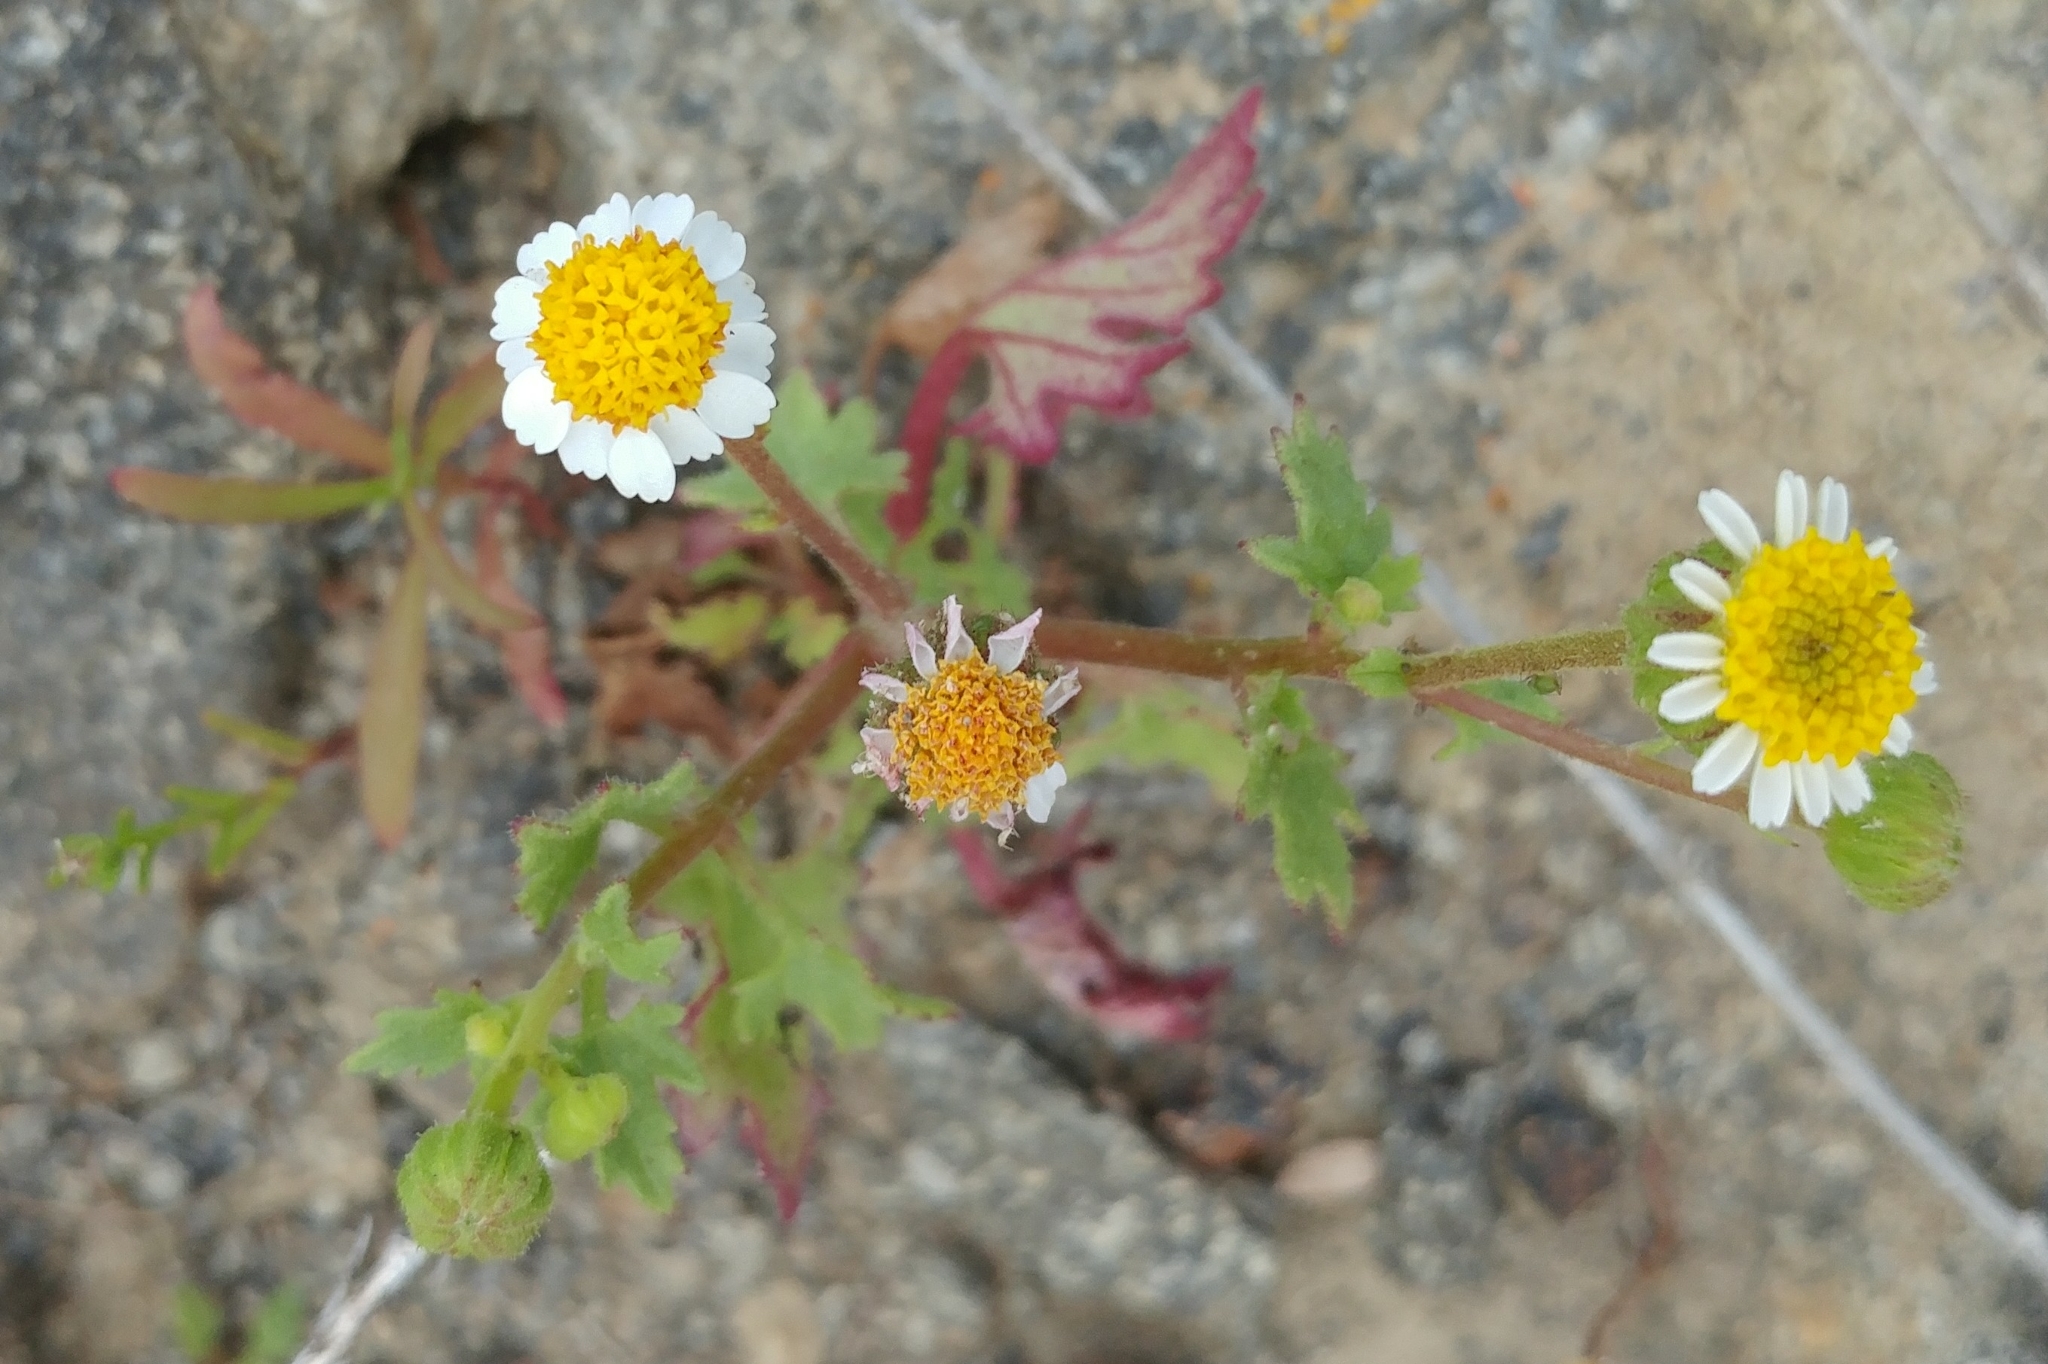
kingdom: Plantae
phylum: Tracheophyta
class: Magnoliopsida
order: Asterales
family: Asteraceae
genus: Laphamia
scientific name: Laphamia emoryi
